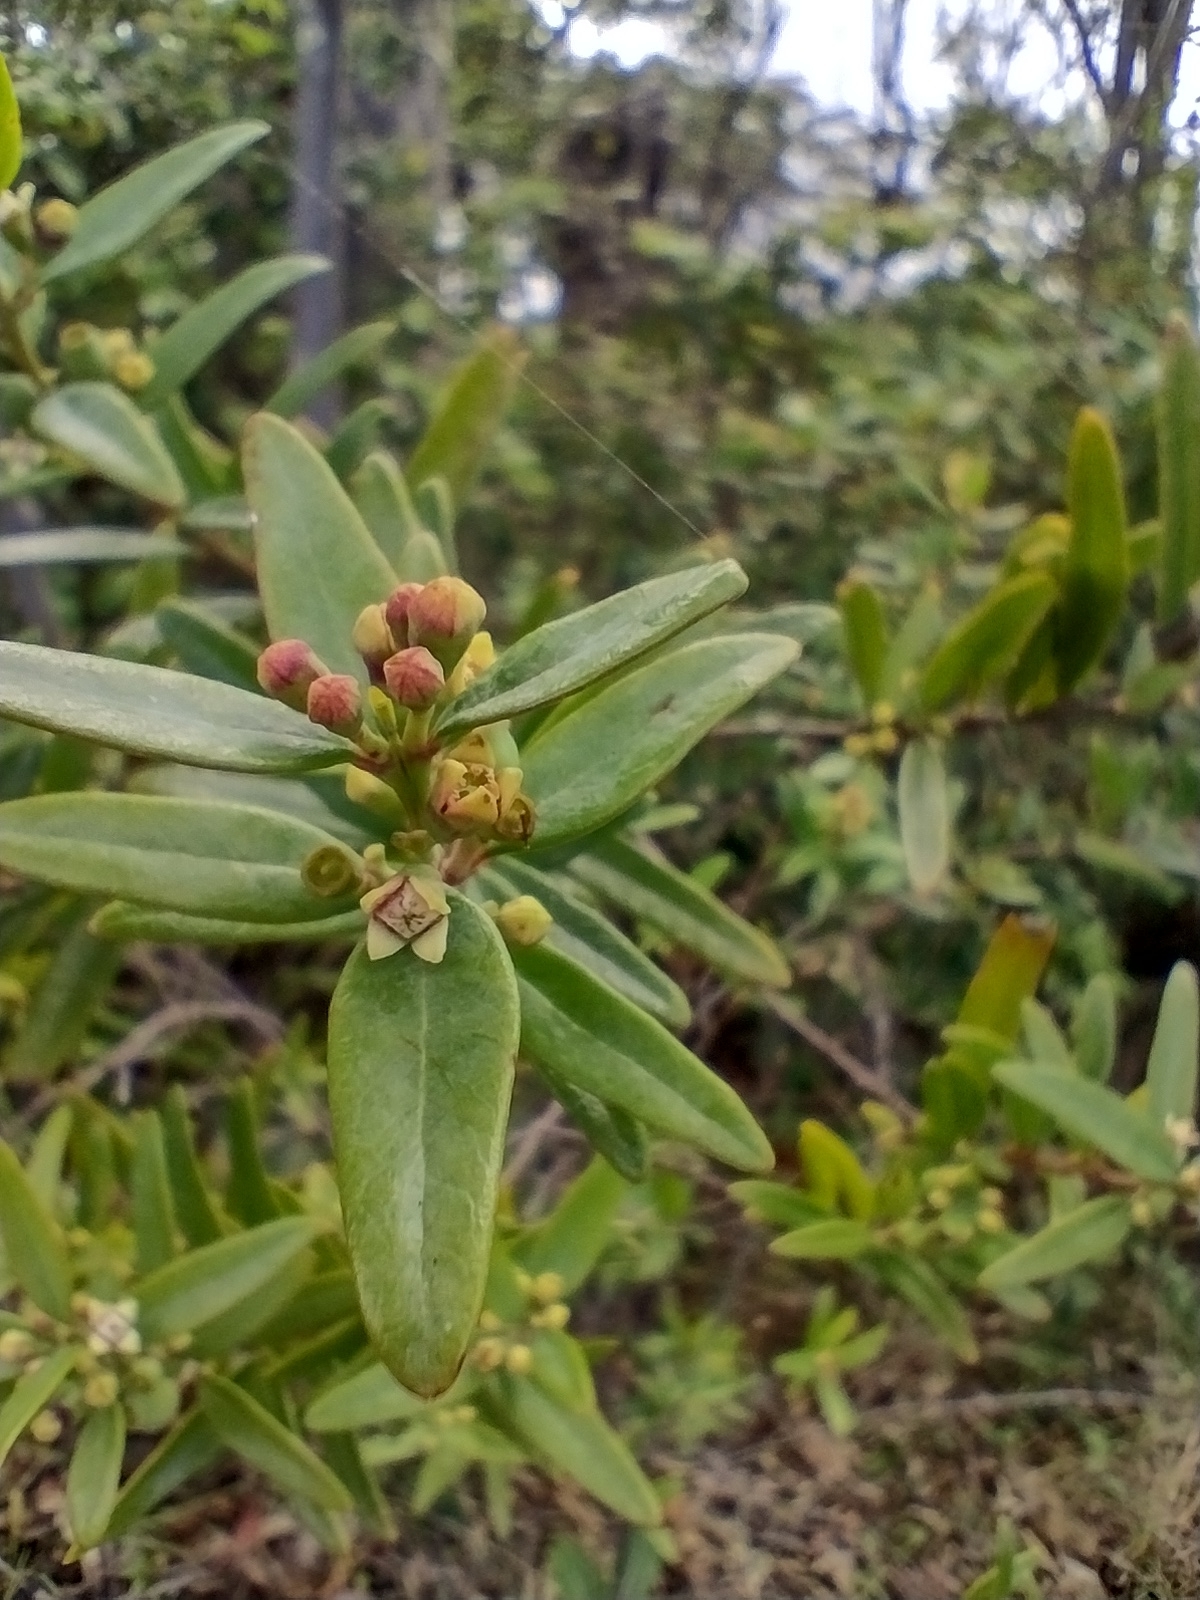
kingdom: Plantae
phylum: Tracheophyta
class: Magnoliopsida
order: Santalales
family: Santalaceae
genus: Santalum
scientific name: Santalum obtusifolium
